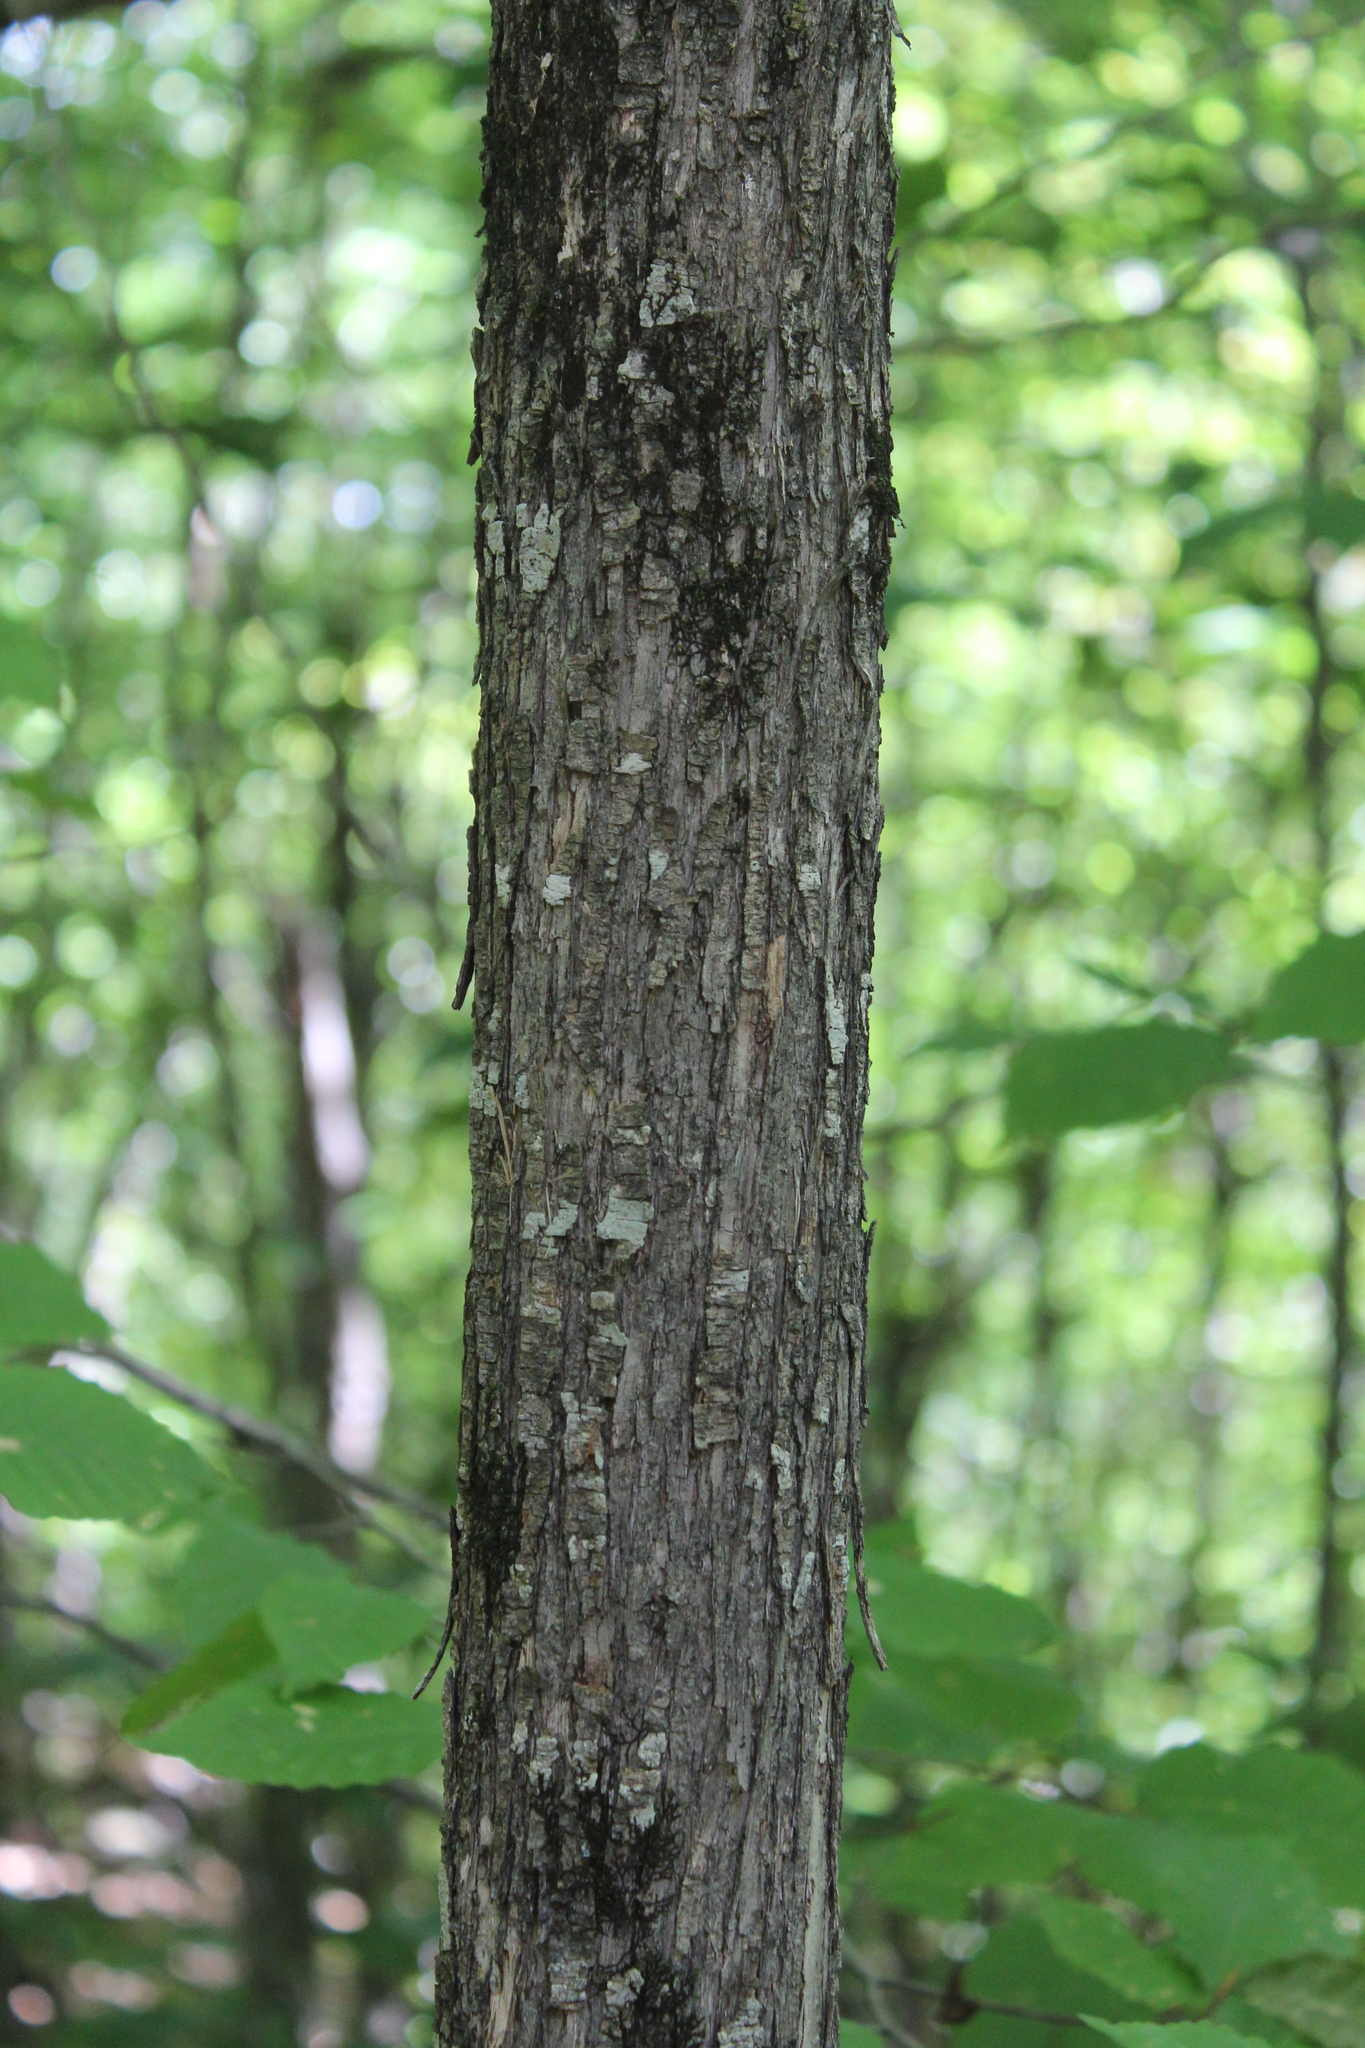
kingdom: Plantae
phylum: Tracheophyta
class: Magnoliopsida
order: Fagales
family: Betulaceae
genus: Ostrya
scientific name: Ostrya virginiana
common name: Ironwood
